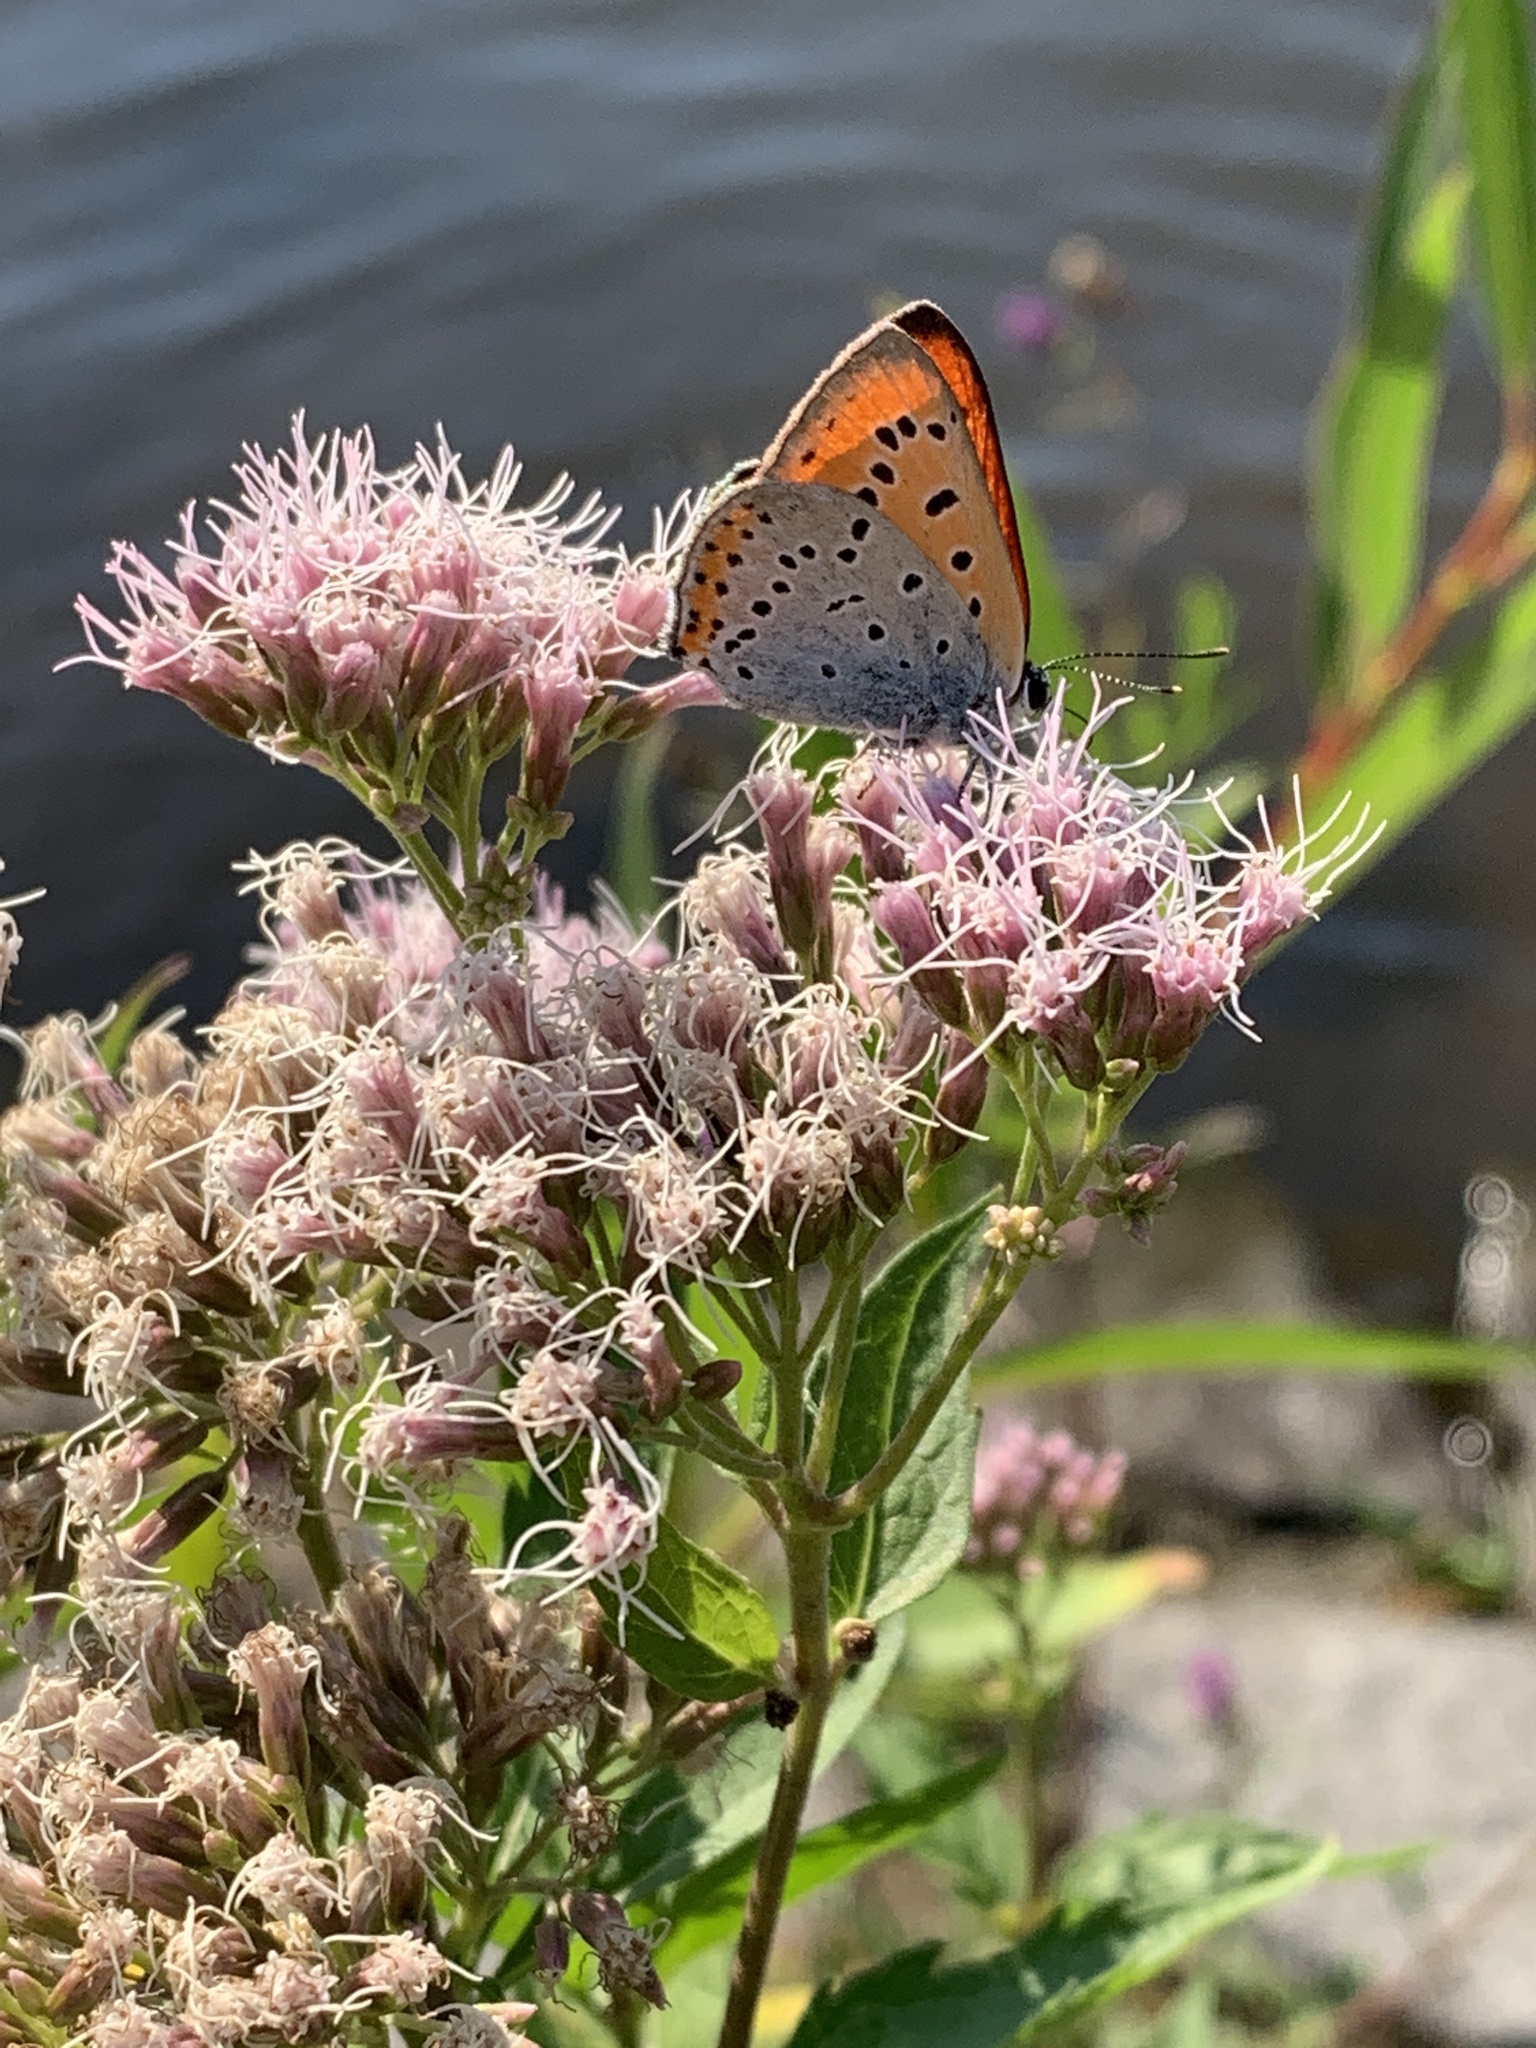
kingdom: Plantae
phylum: Tracheophyta
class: Magnoliopsida
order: Asterales
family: Asteraceae
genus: Eupatorium
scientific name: Eupatorium cannabinum
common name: Hemp-agrimony
